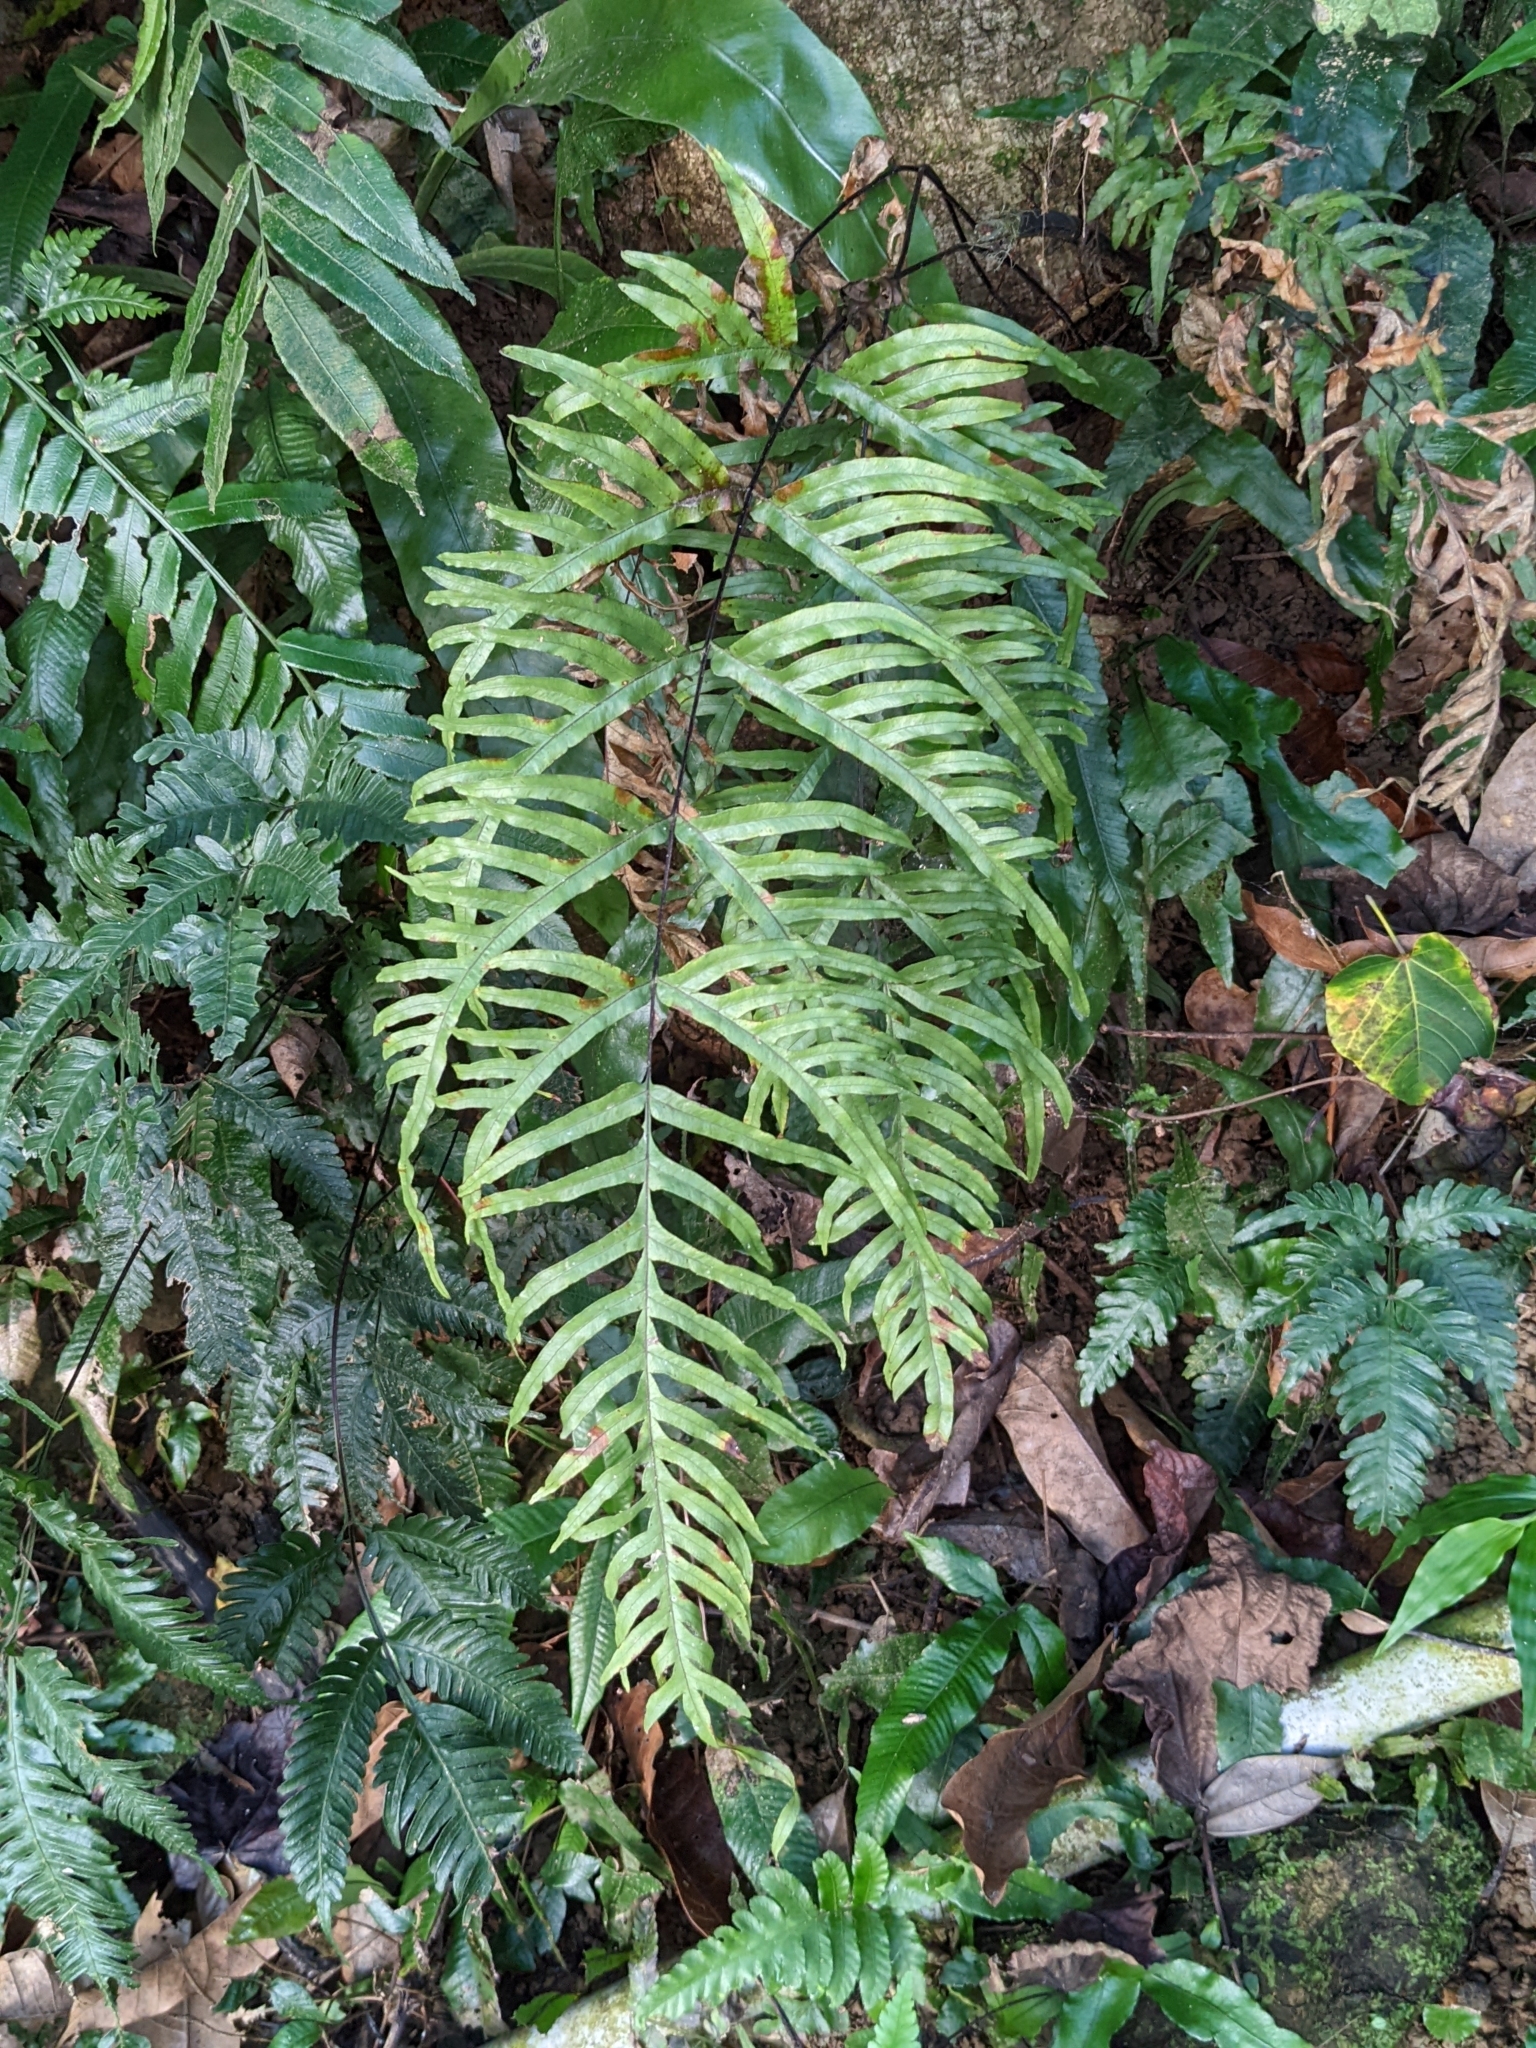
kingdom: Plantae
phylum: Tracheophyta
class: Polypodiopsida
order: Polypodiales
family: Pteridaceae
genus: Pteris
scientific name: Pteris semipinnata
